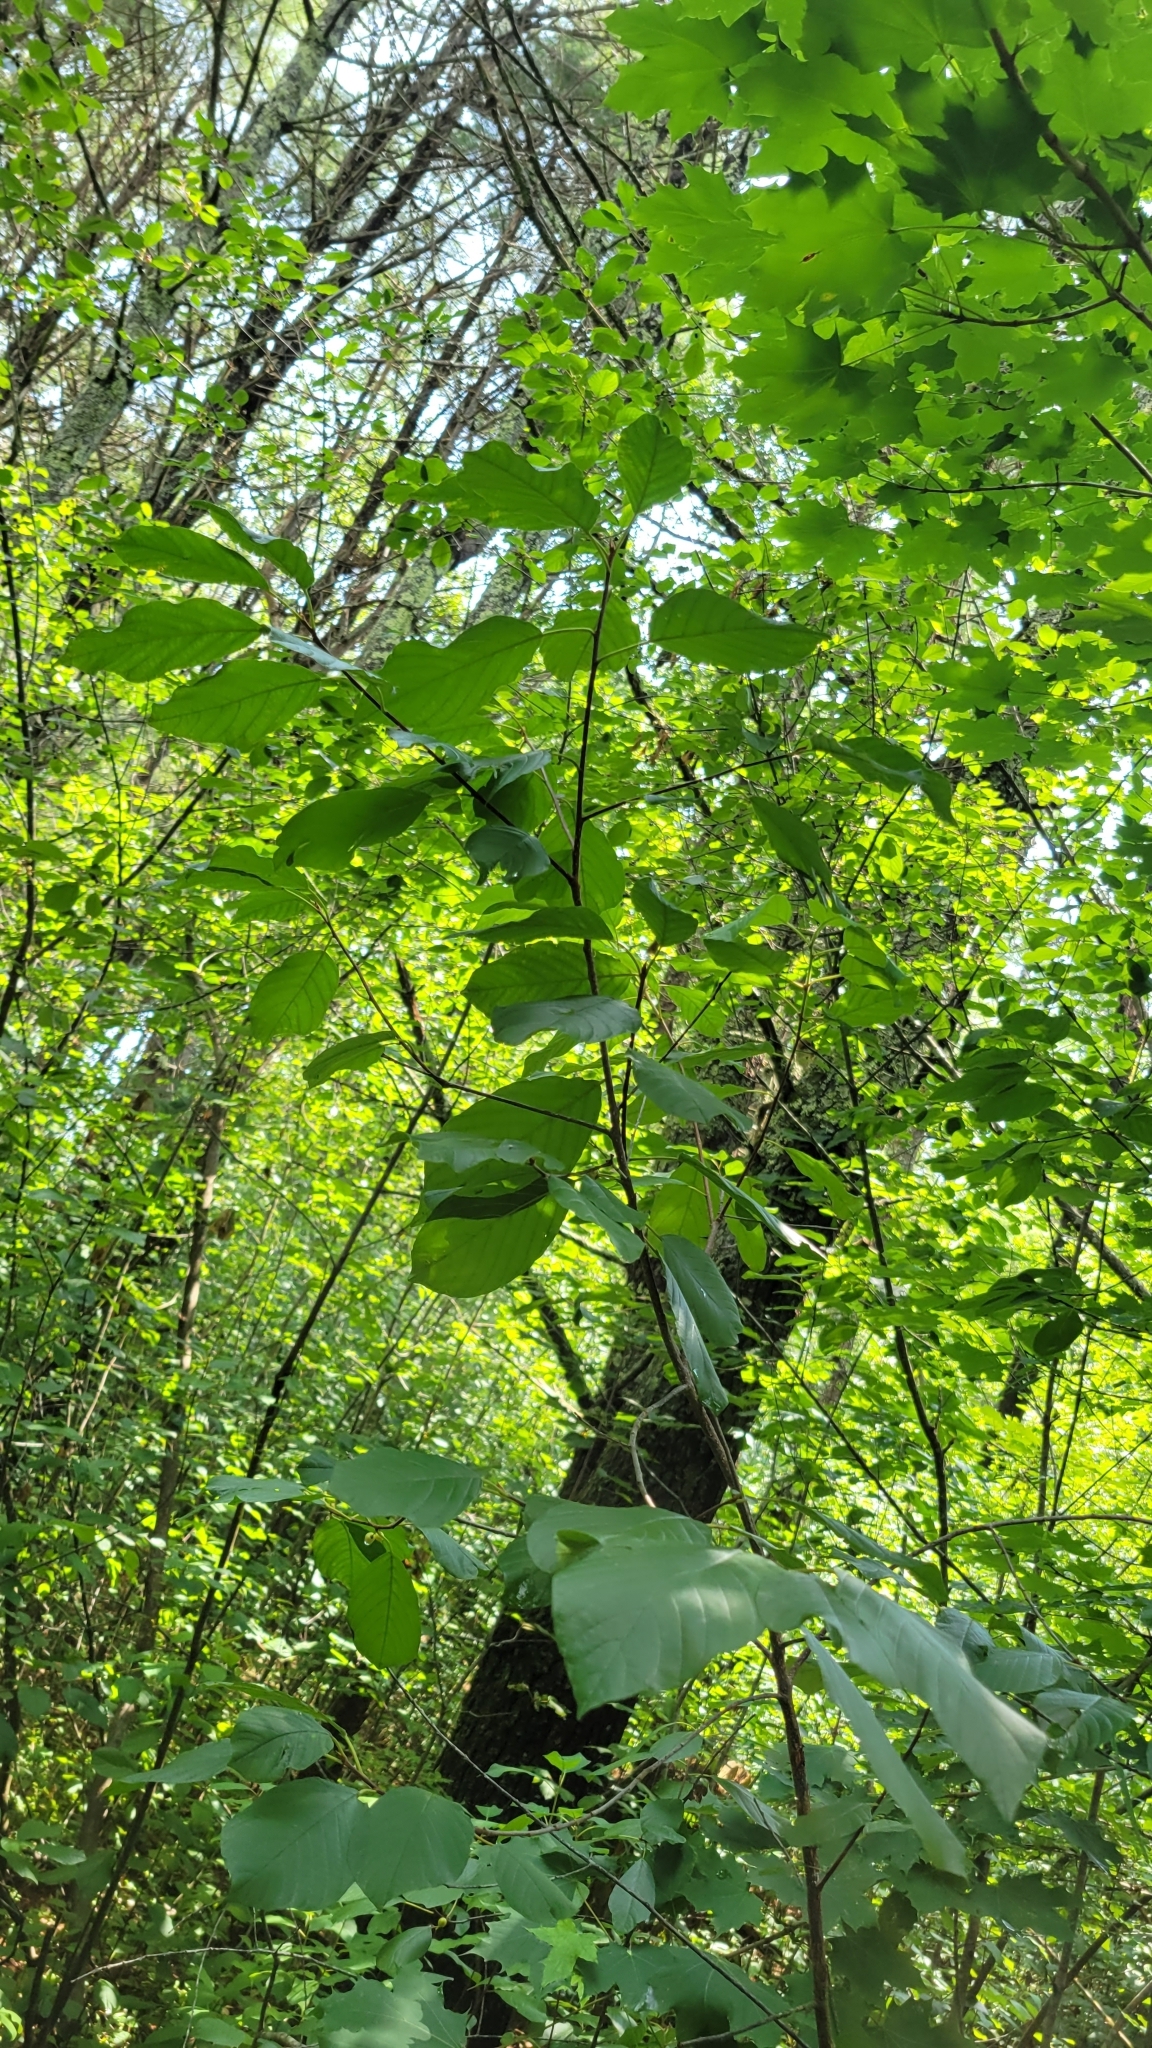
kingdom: Plantae
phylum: Tracheophyta
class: Magnoliopsida
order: Rosales
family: Rhamnaceae
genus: Frangula
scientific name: Frangula alnus
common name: Alder buckthorn
